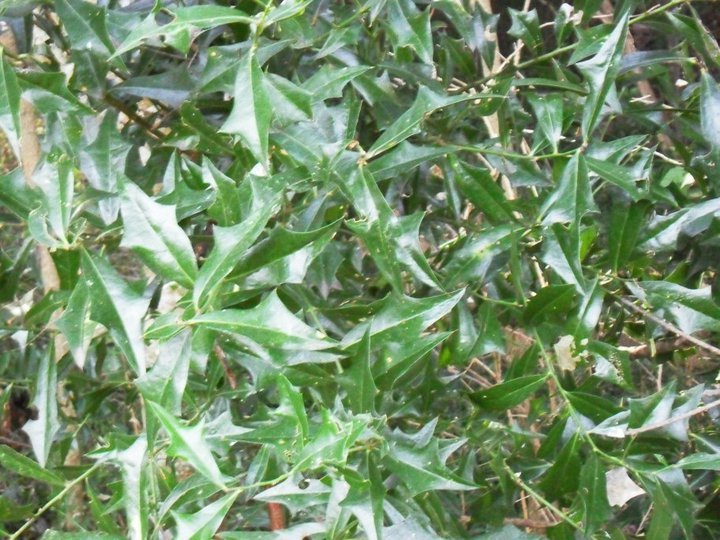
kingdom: Plantae
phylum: Tracheophyta
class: Magnoliopsida
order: Santalales
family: Cervantesiaceae
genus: Jodina
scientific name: Jodina rhombifolia
